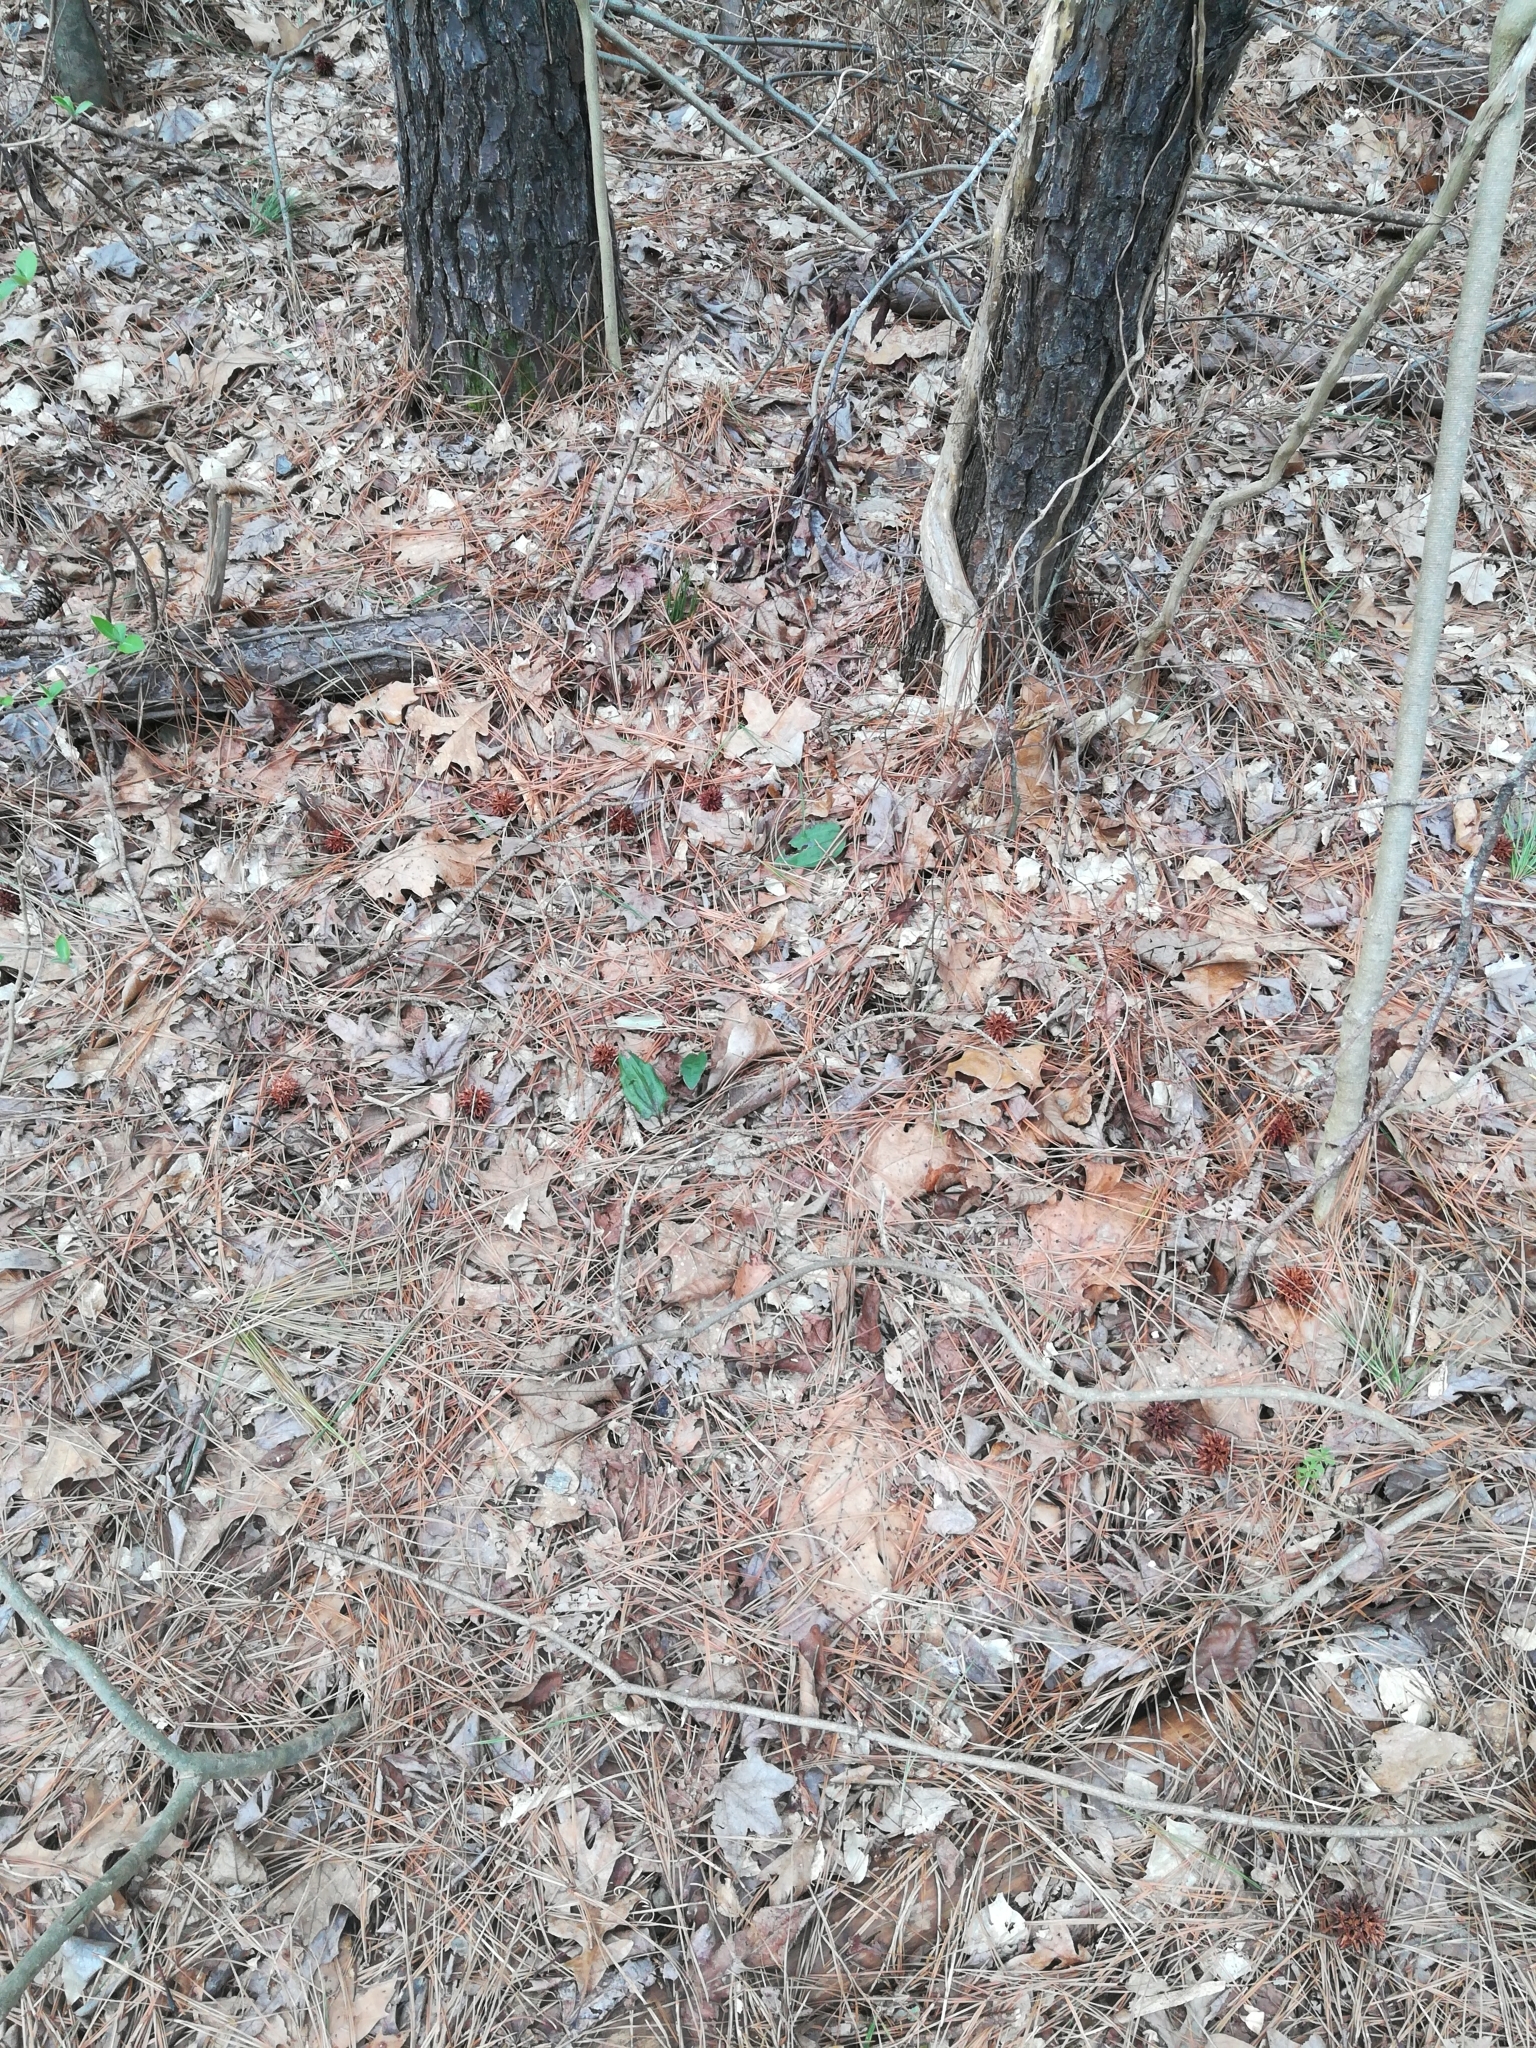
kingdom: Plantae
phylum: Tracheophyta
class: Liliopsida
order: Asparagales
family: Orchidaceae
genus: Tipularia
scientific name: Tipularia discolor
